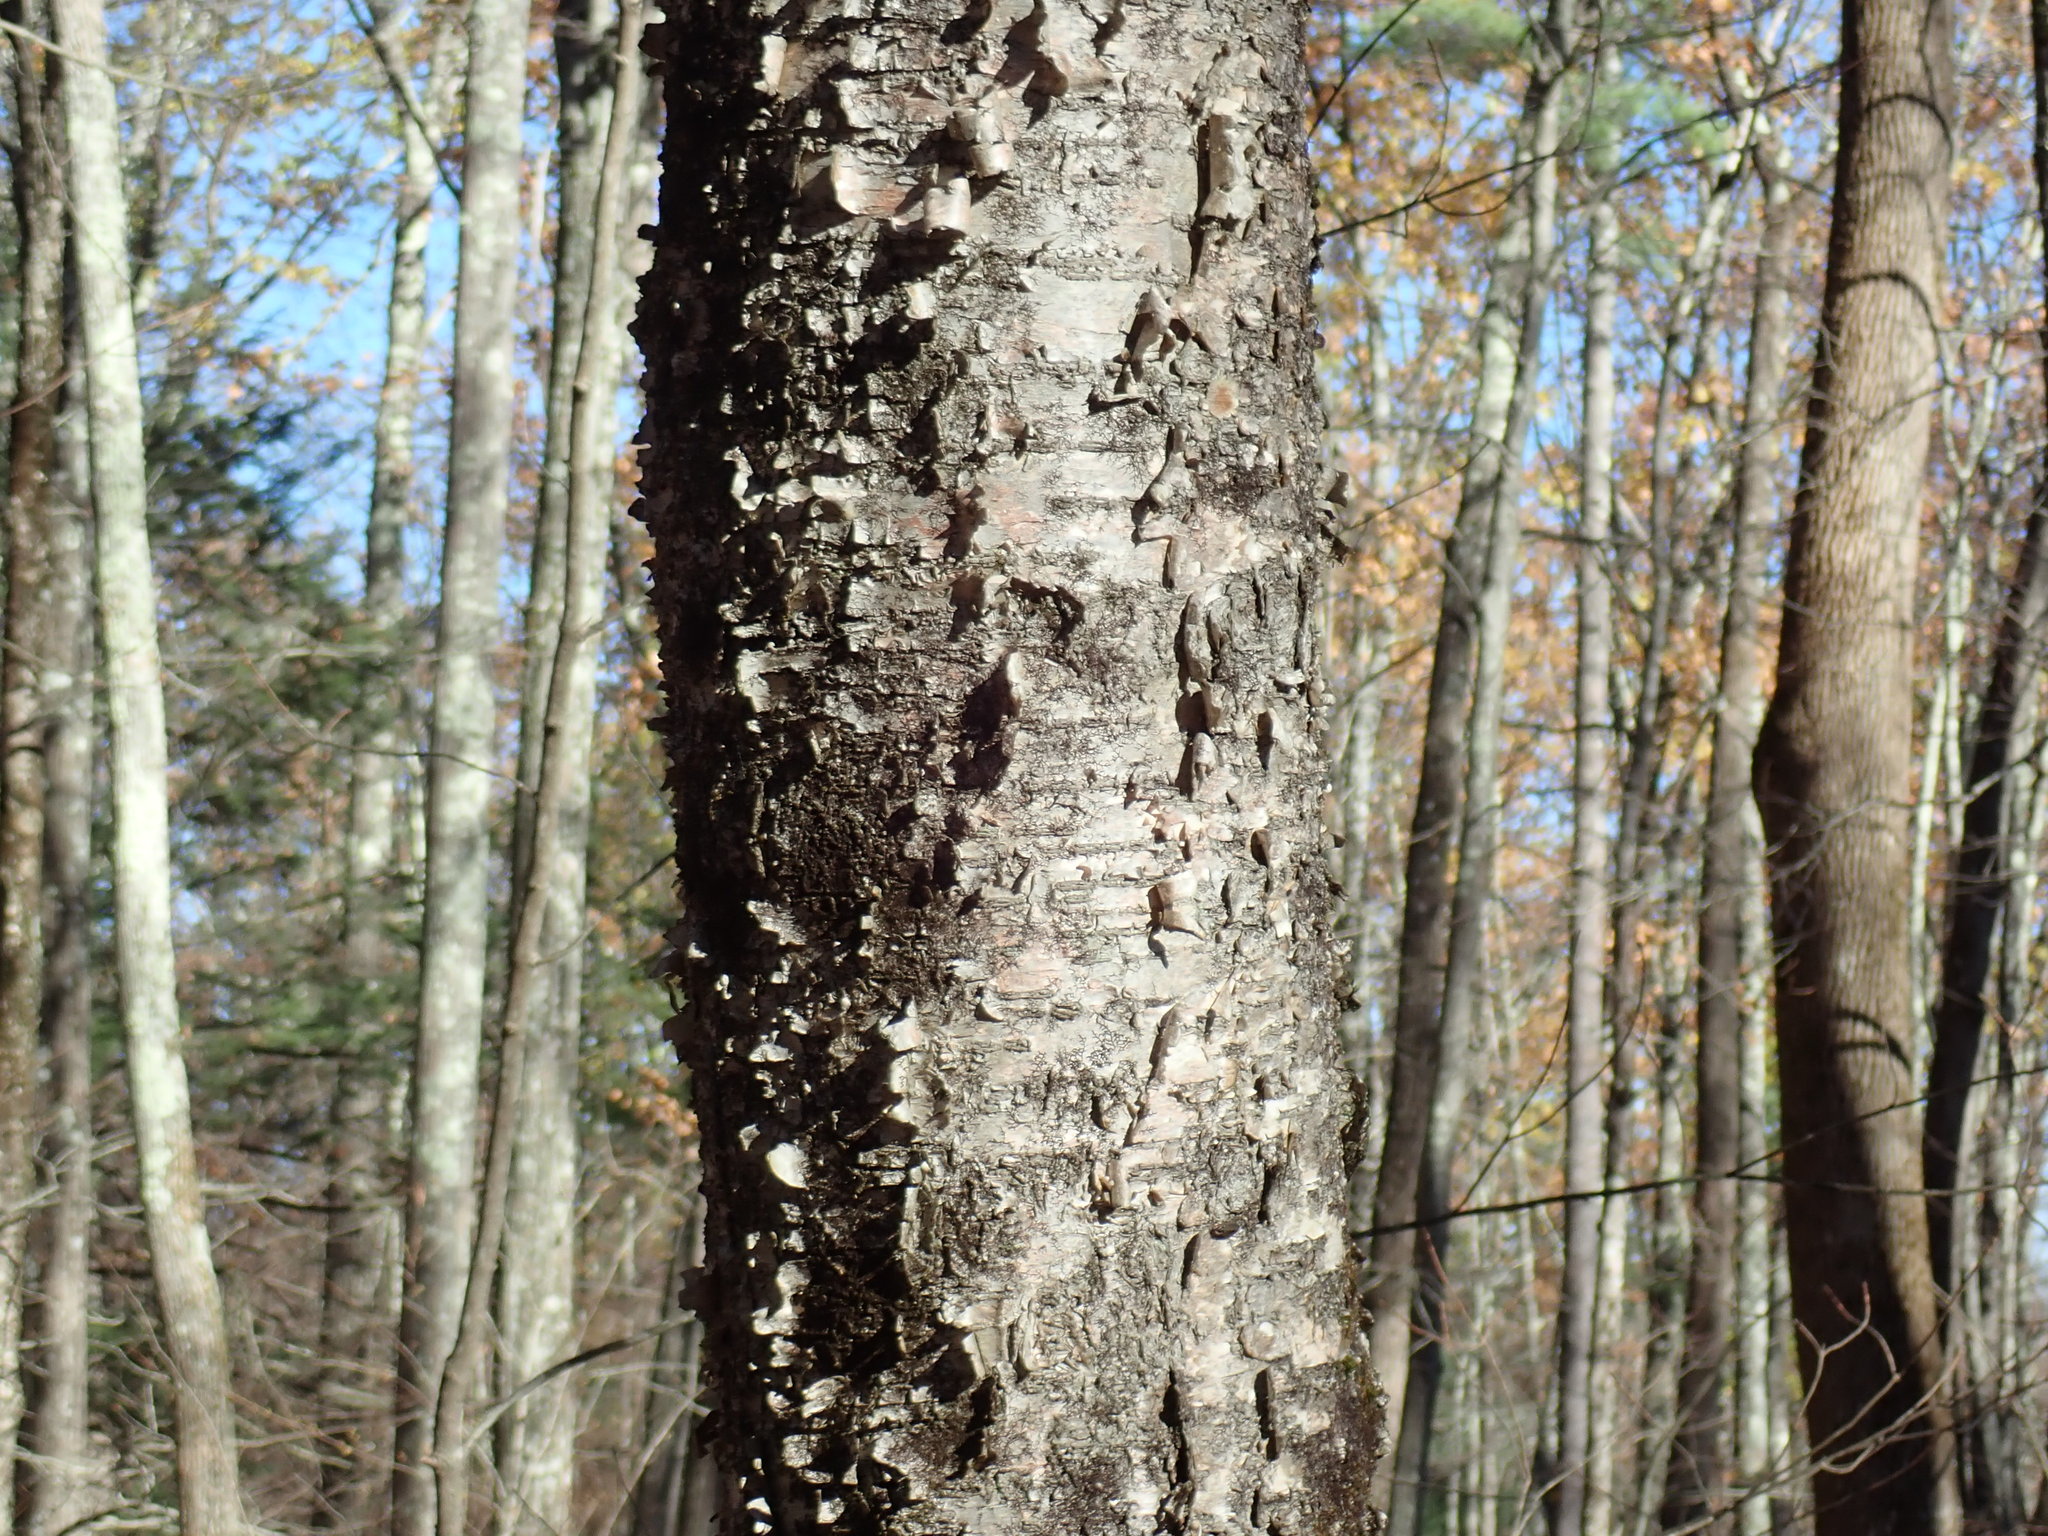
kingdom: Plantae
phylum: Tracheophyta
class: Magnoliopsida
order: Fagales
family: Betulaceae
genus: Betula
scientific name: Betula alleghaniensis
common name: Yellow birch
